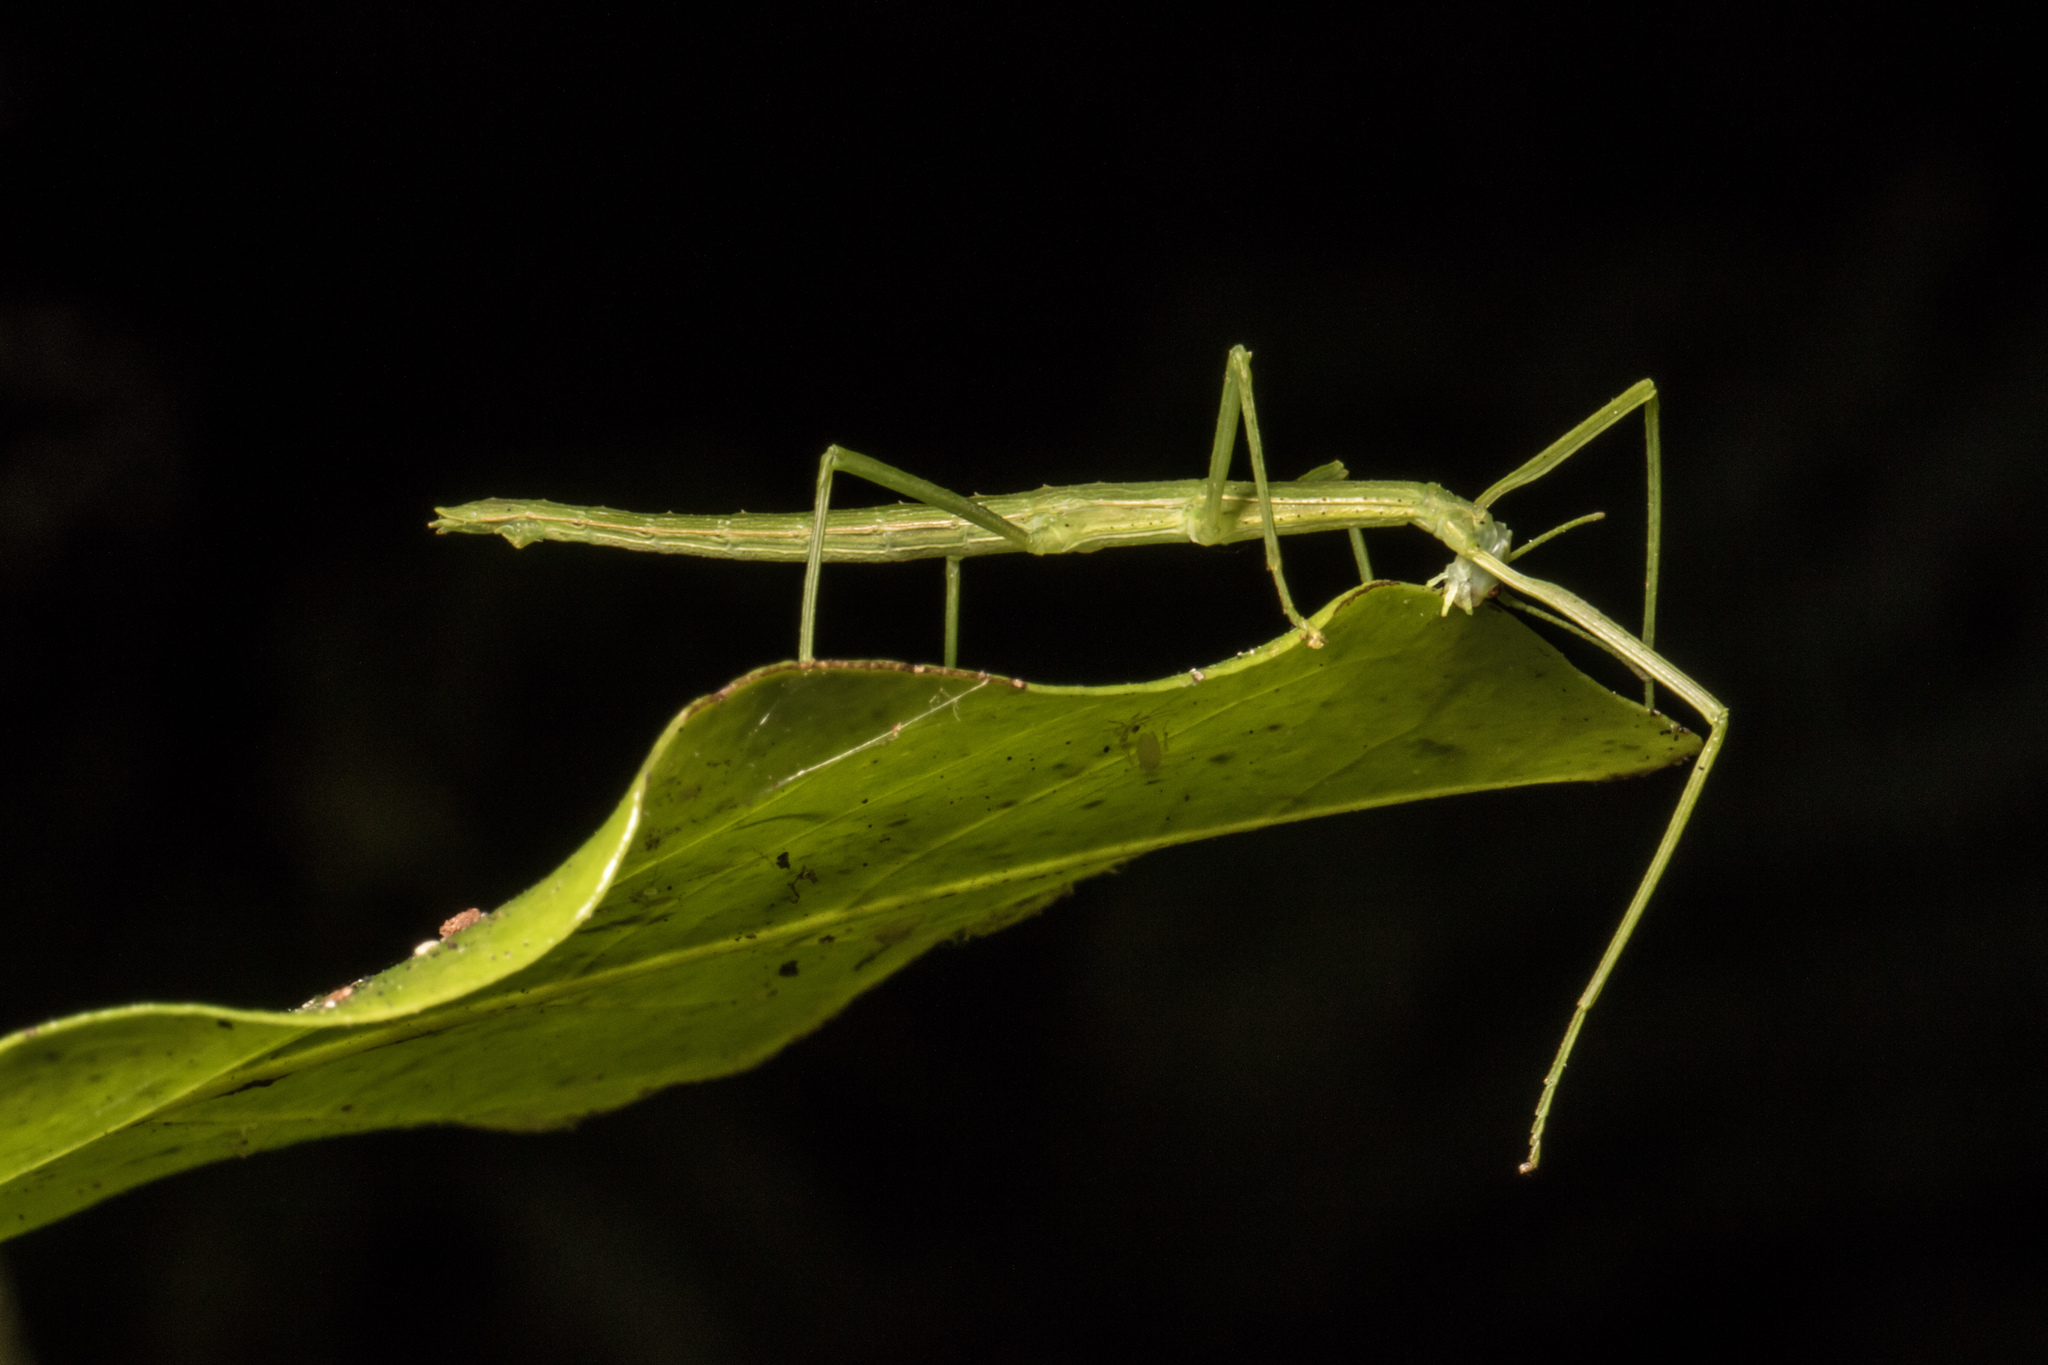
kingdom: Animalia
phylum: Arthropoda
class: Insecta
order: Phasmida
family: Phasmatidae
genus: Clitarchus
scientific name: Clitarchus hookeri
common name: Smooth stick insect
